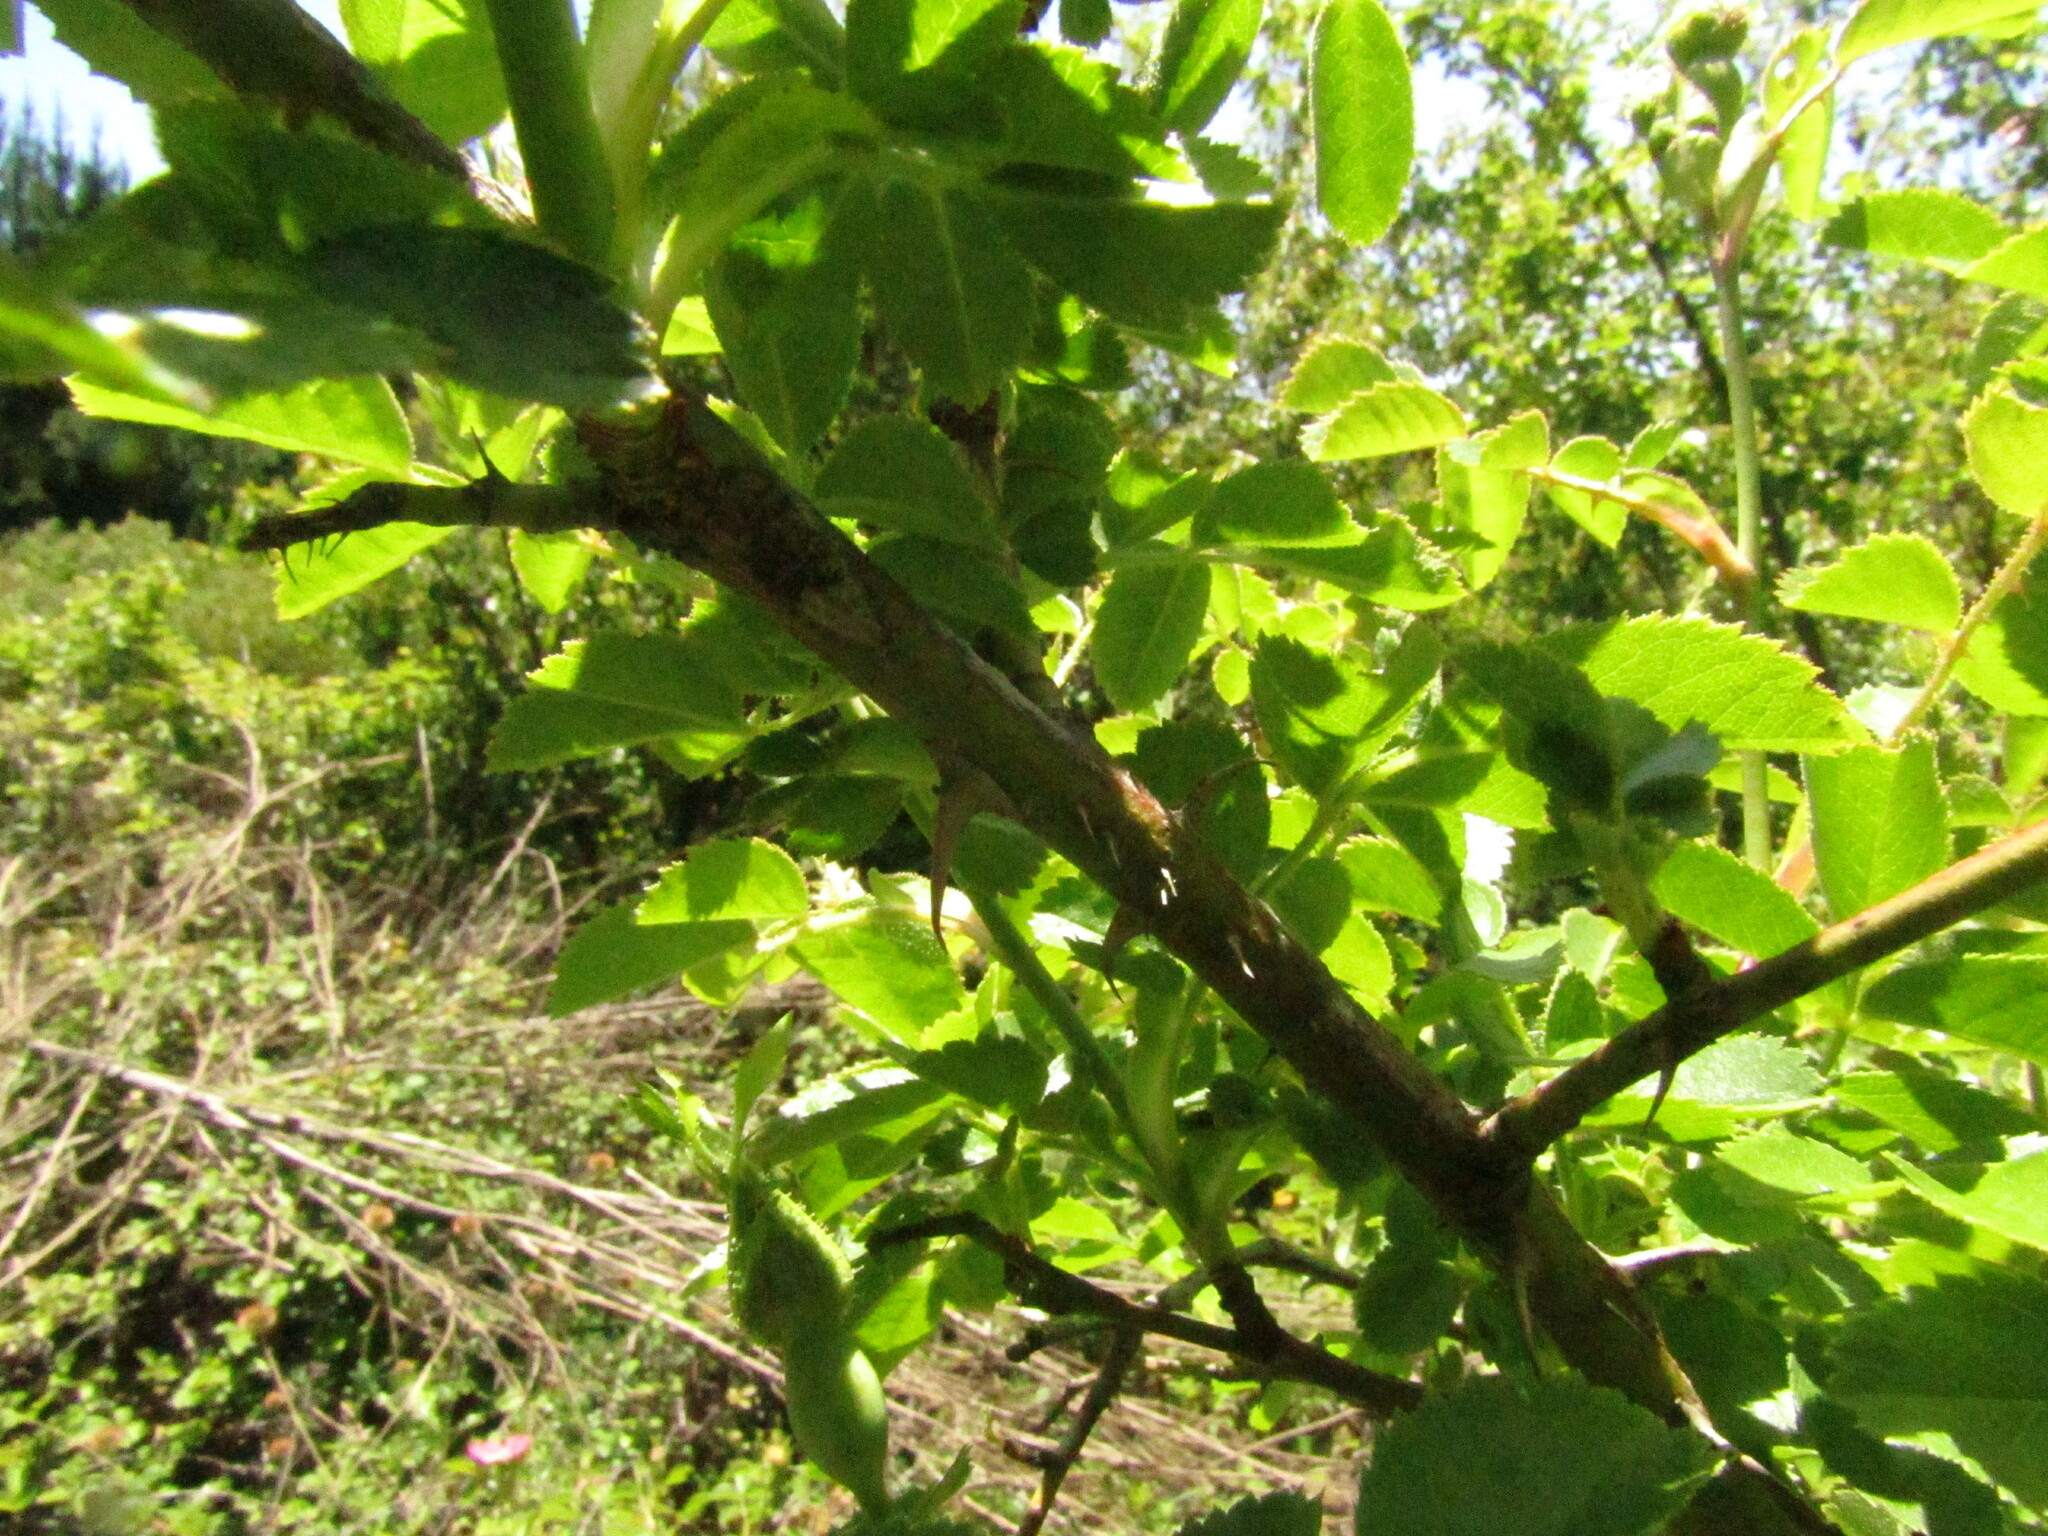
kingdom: Plantae
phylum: Tracheophyta
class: Magnoliopsida
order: Rosales
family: Rosaceae
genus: Rosa
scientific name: Rosa rubiginosa
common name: Sweet-briar
